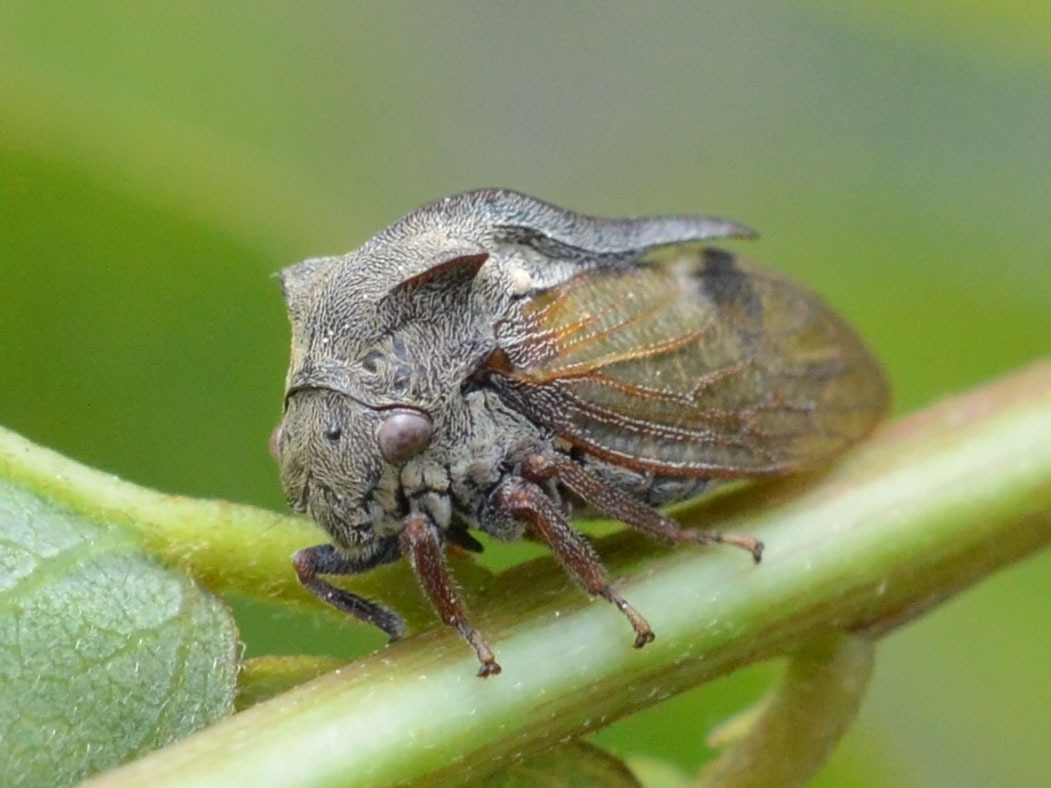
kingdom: Animalia
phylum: Arthropoda
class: Insecta
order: Hemiptera
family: Membracidae
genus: Centrotus
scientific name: Centrotus cornuta
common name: Treehopper
